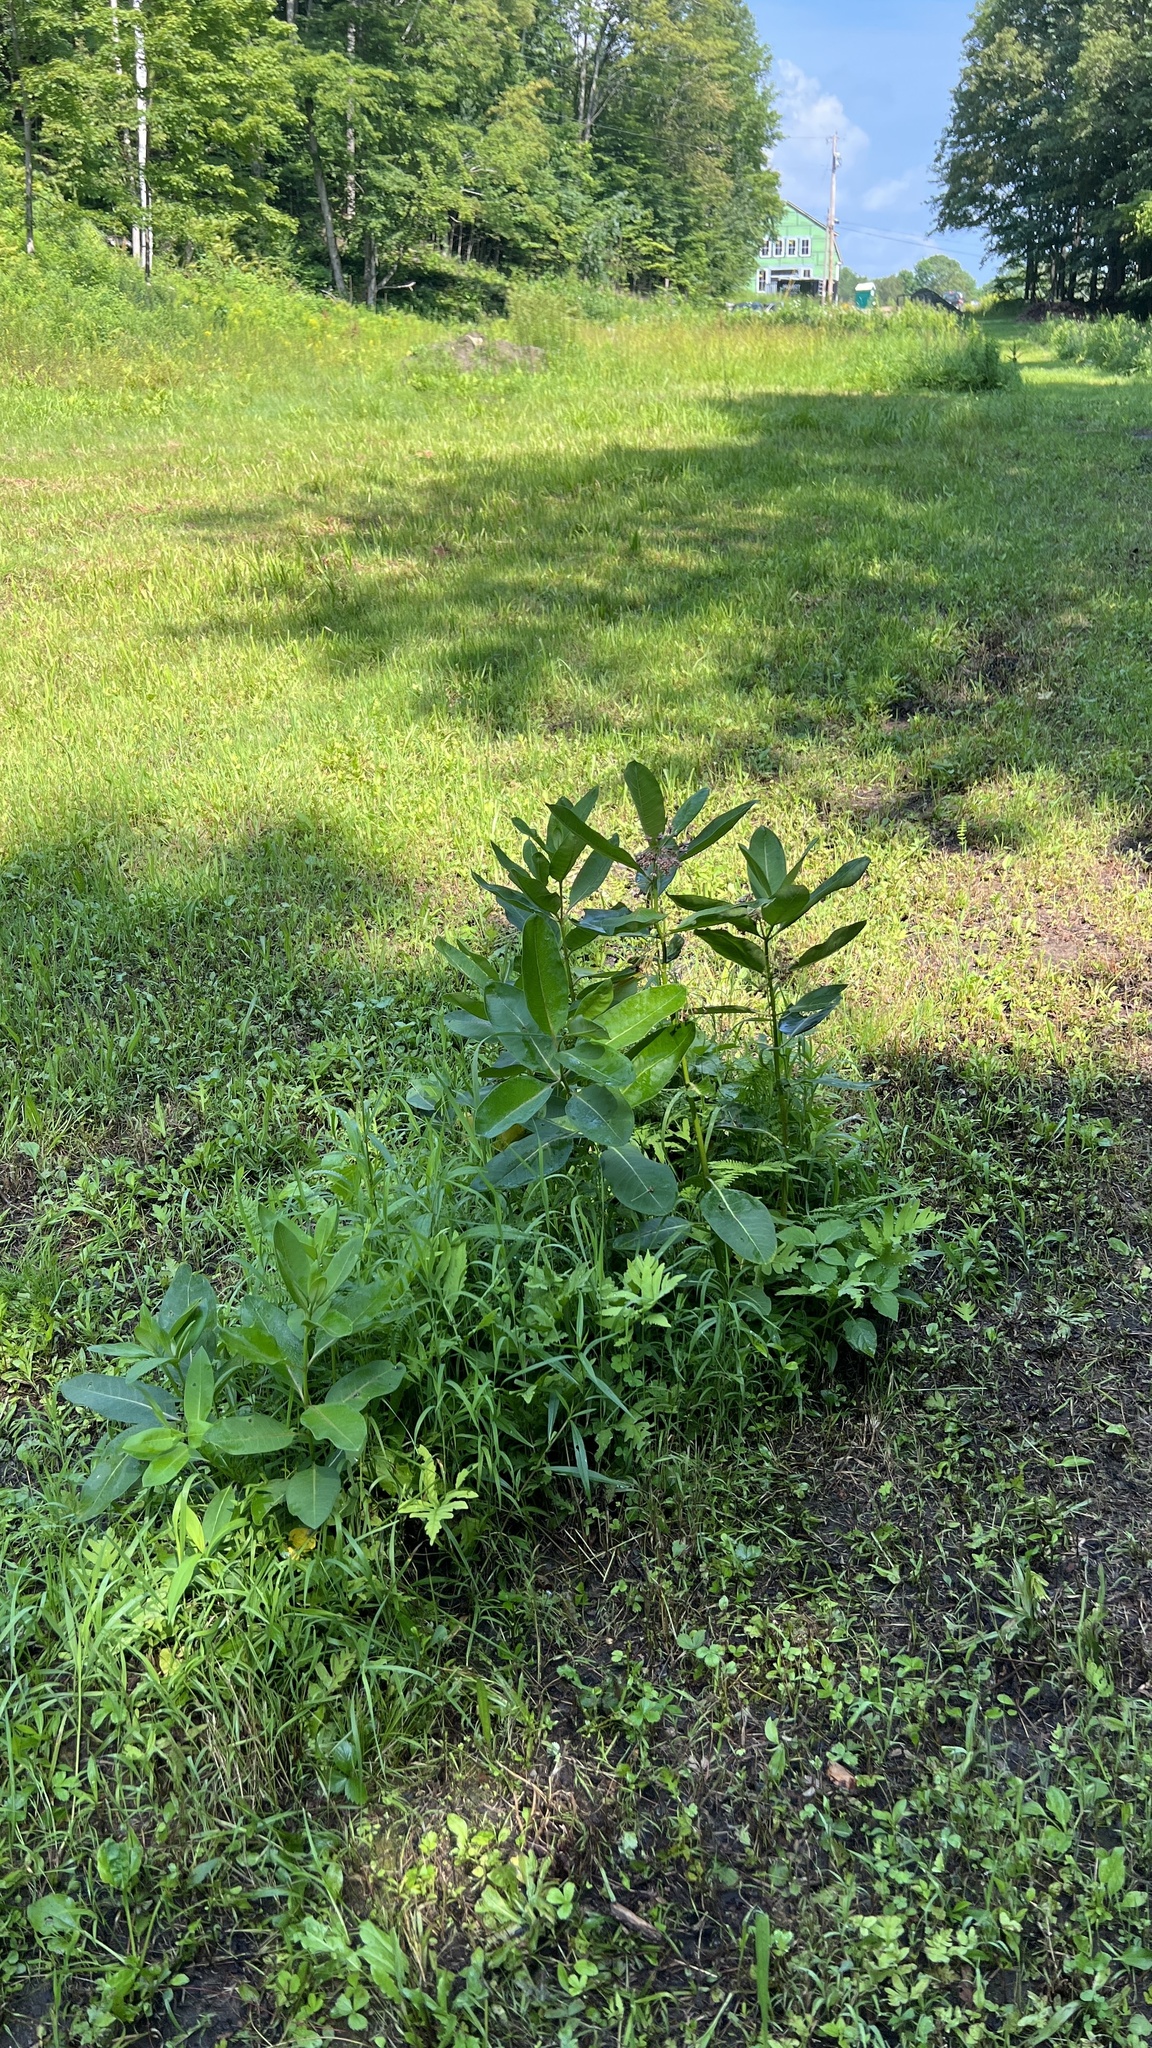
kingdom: Plantae
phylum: Tracheophyta
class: Magnoliopsida
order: Gentianales
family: Apocynaceae
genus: Asclepias
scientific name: Asclepias syriaca
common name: Common milkweed
